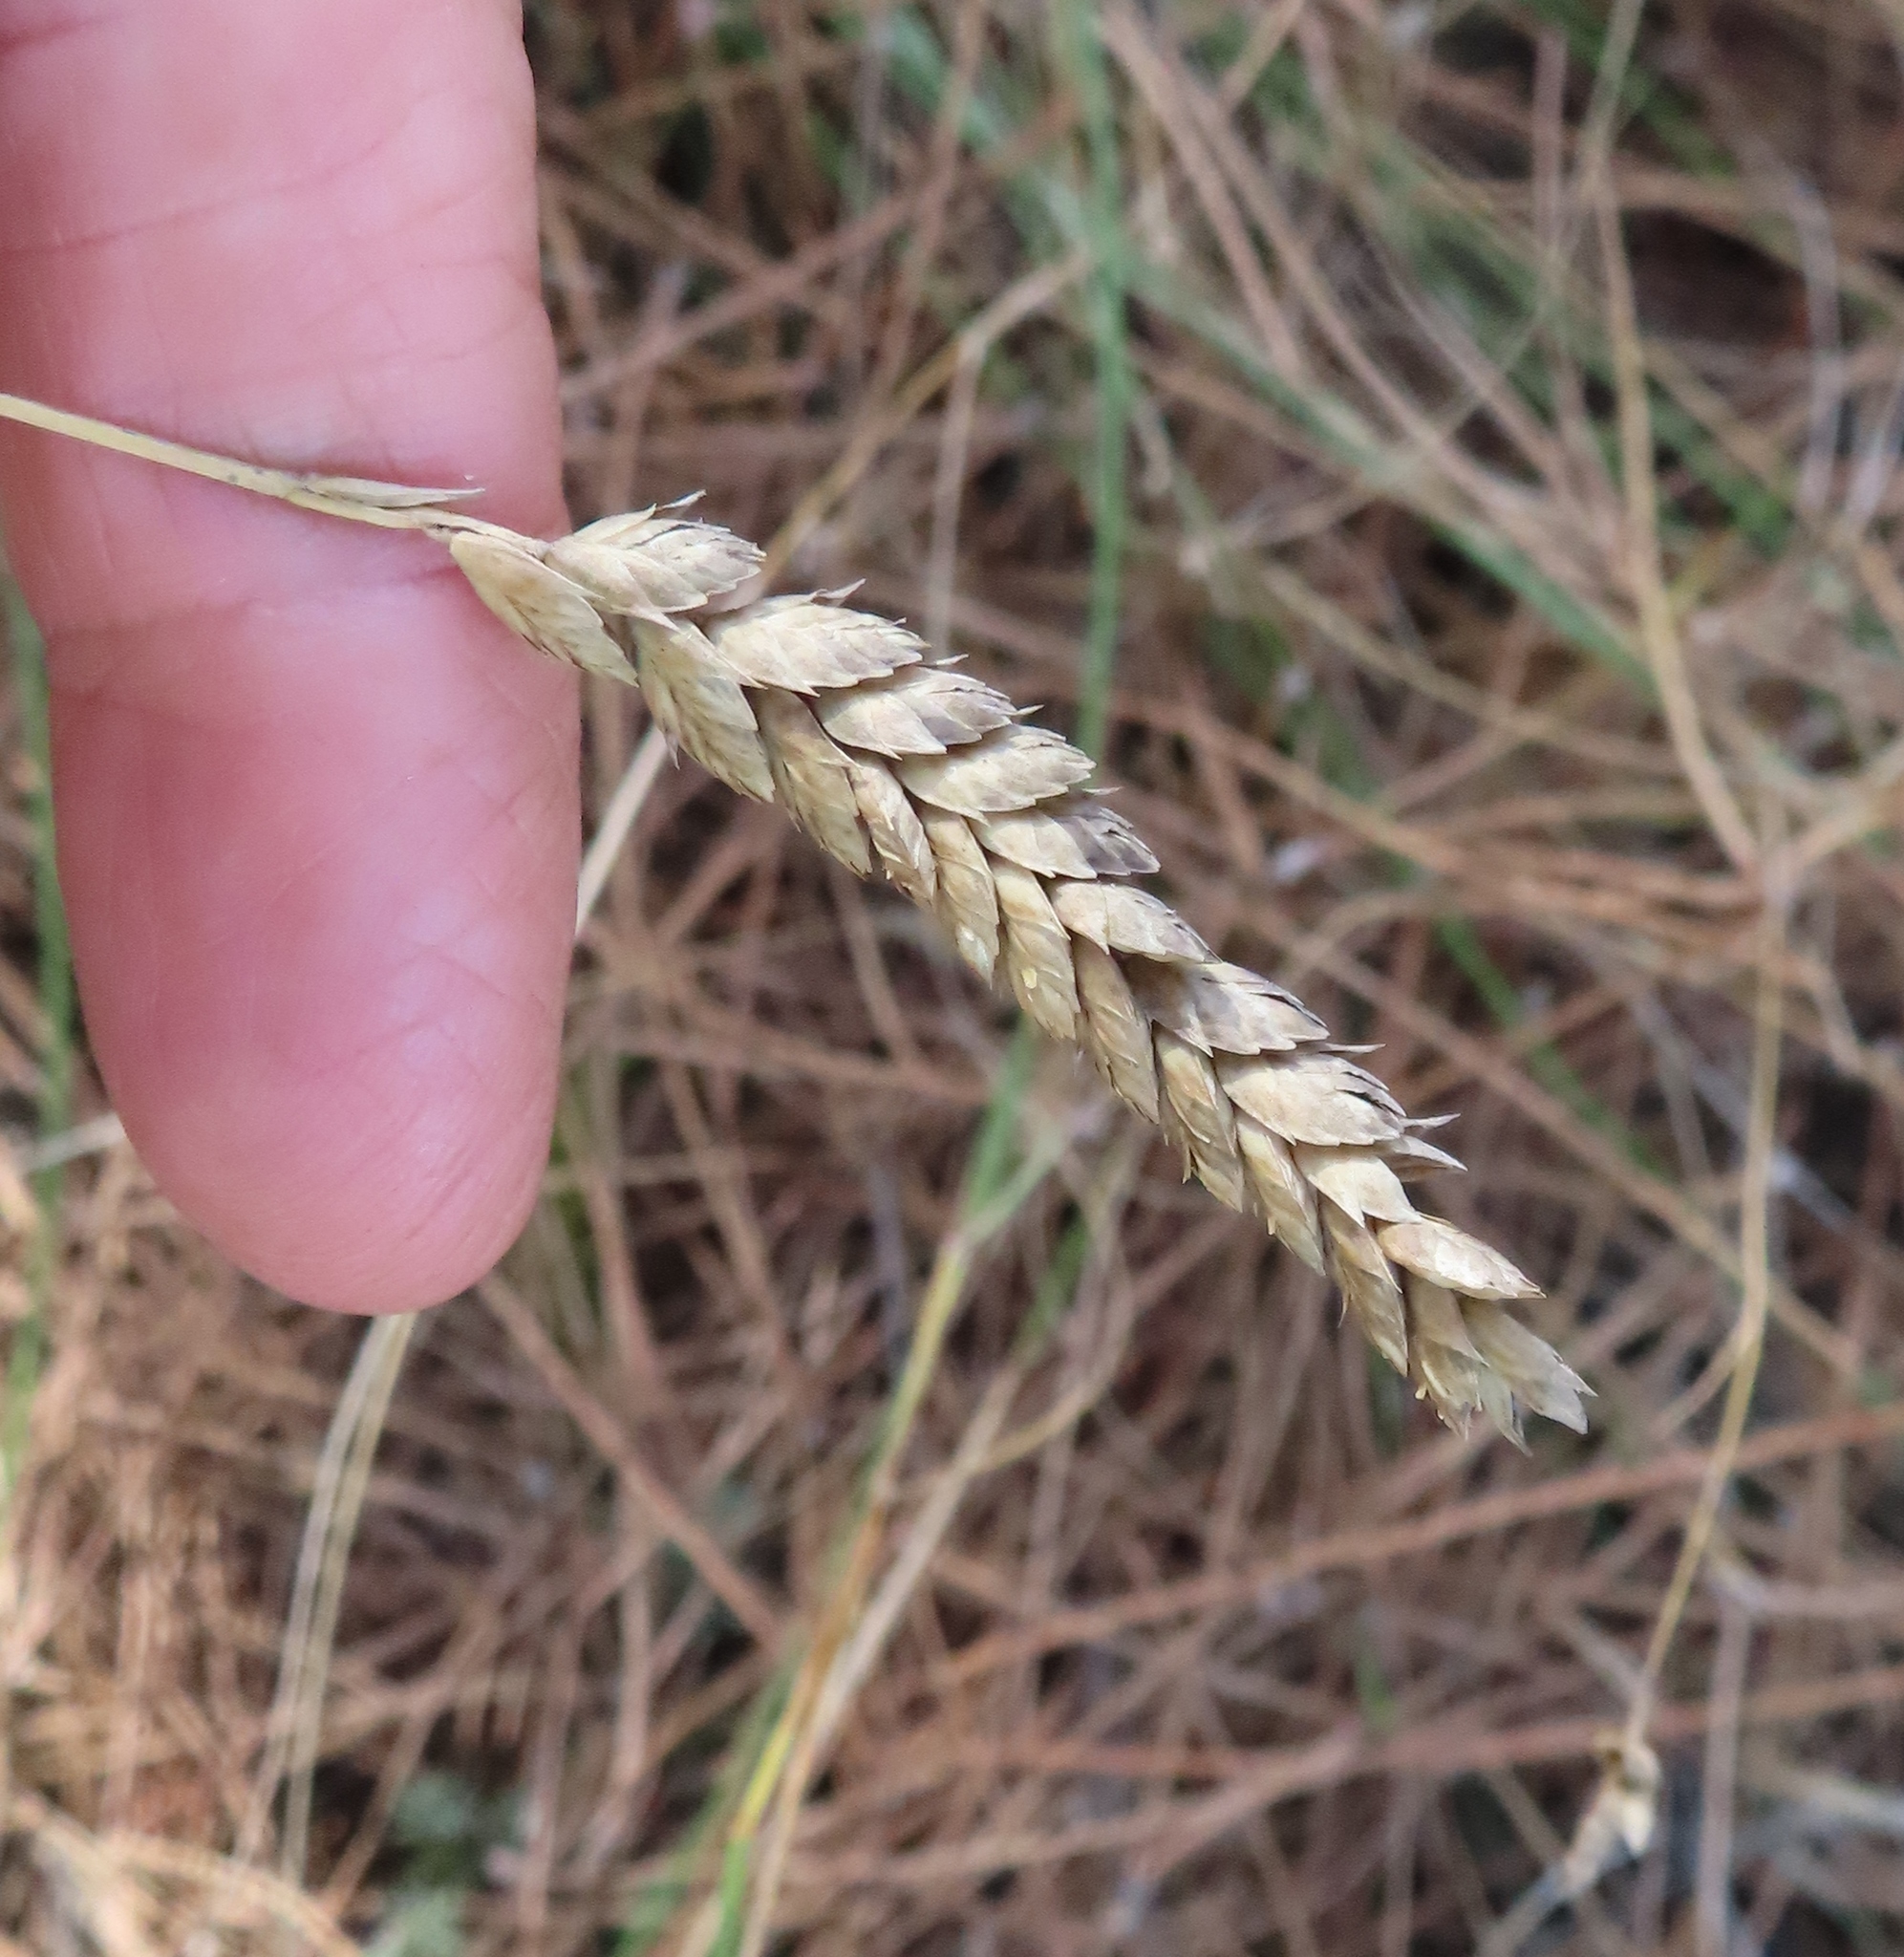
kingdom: Plantae
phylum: Tracheophyta
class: Liliopsida
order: Poales
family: Poaceae
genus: Tribolium
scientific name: Tribolium uniolae
